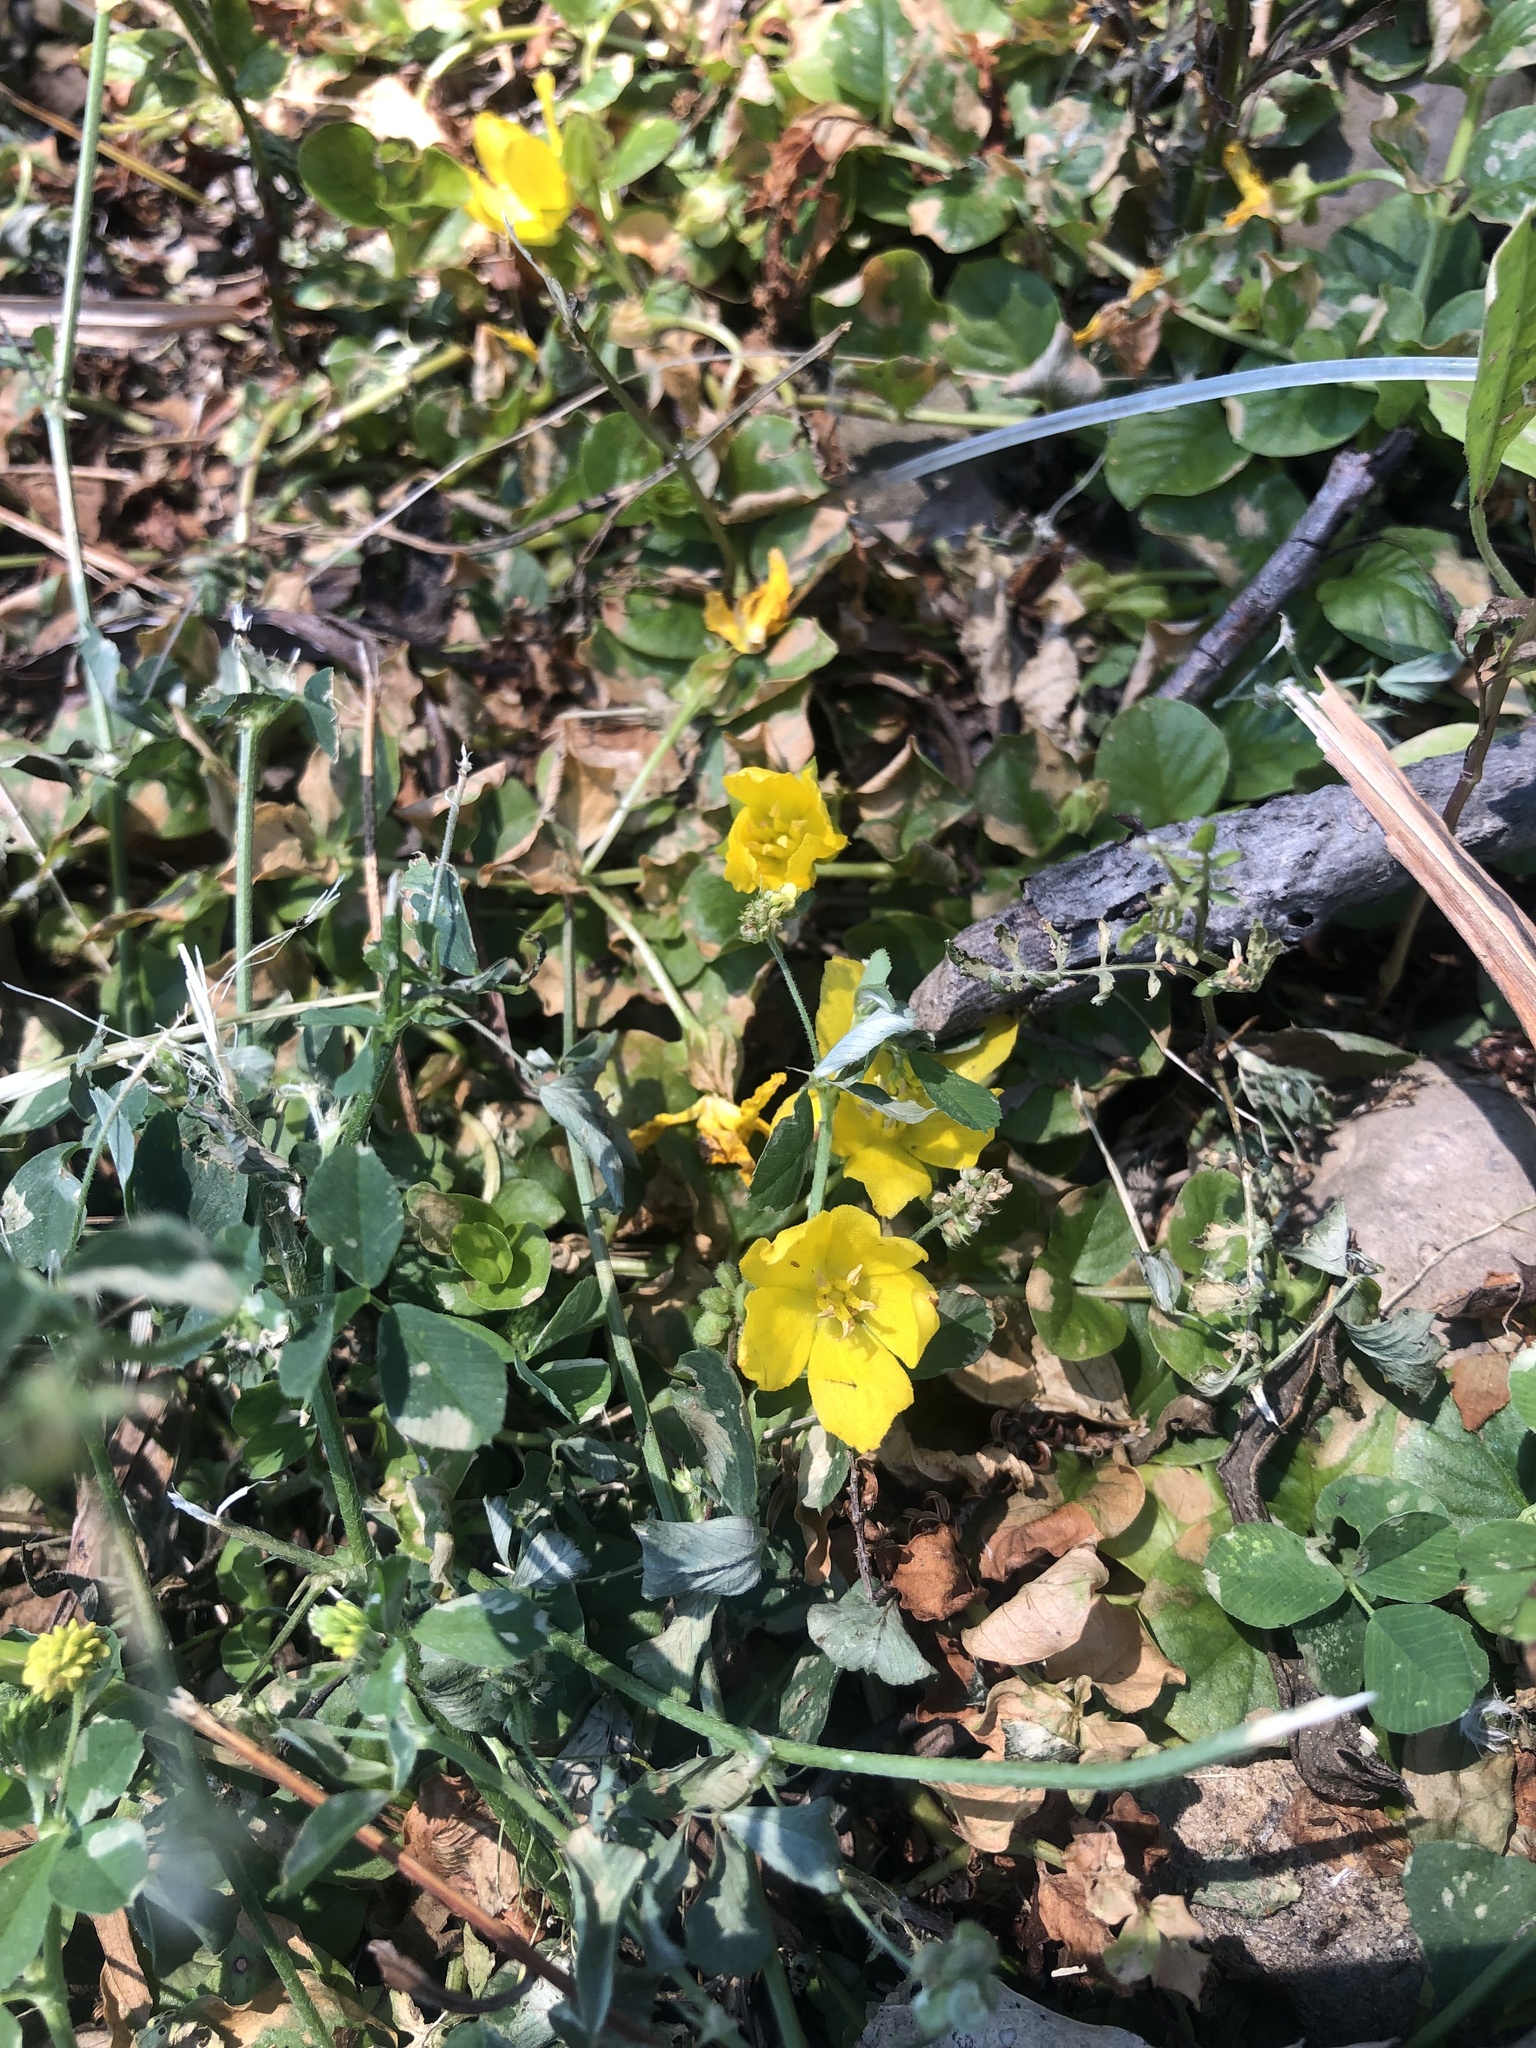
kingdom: Plantae
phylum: Tracheophyta
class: Magnoliopsida
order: Ericales
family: Primulaceae
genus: Lysimachia
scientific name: Lysimachia nummularia
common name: Moneywort
